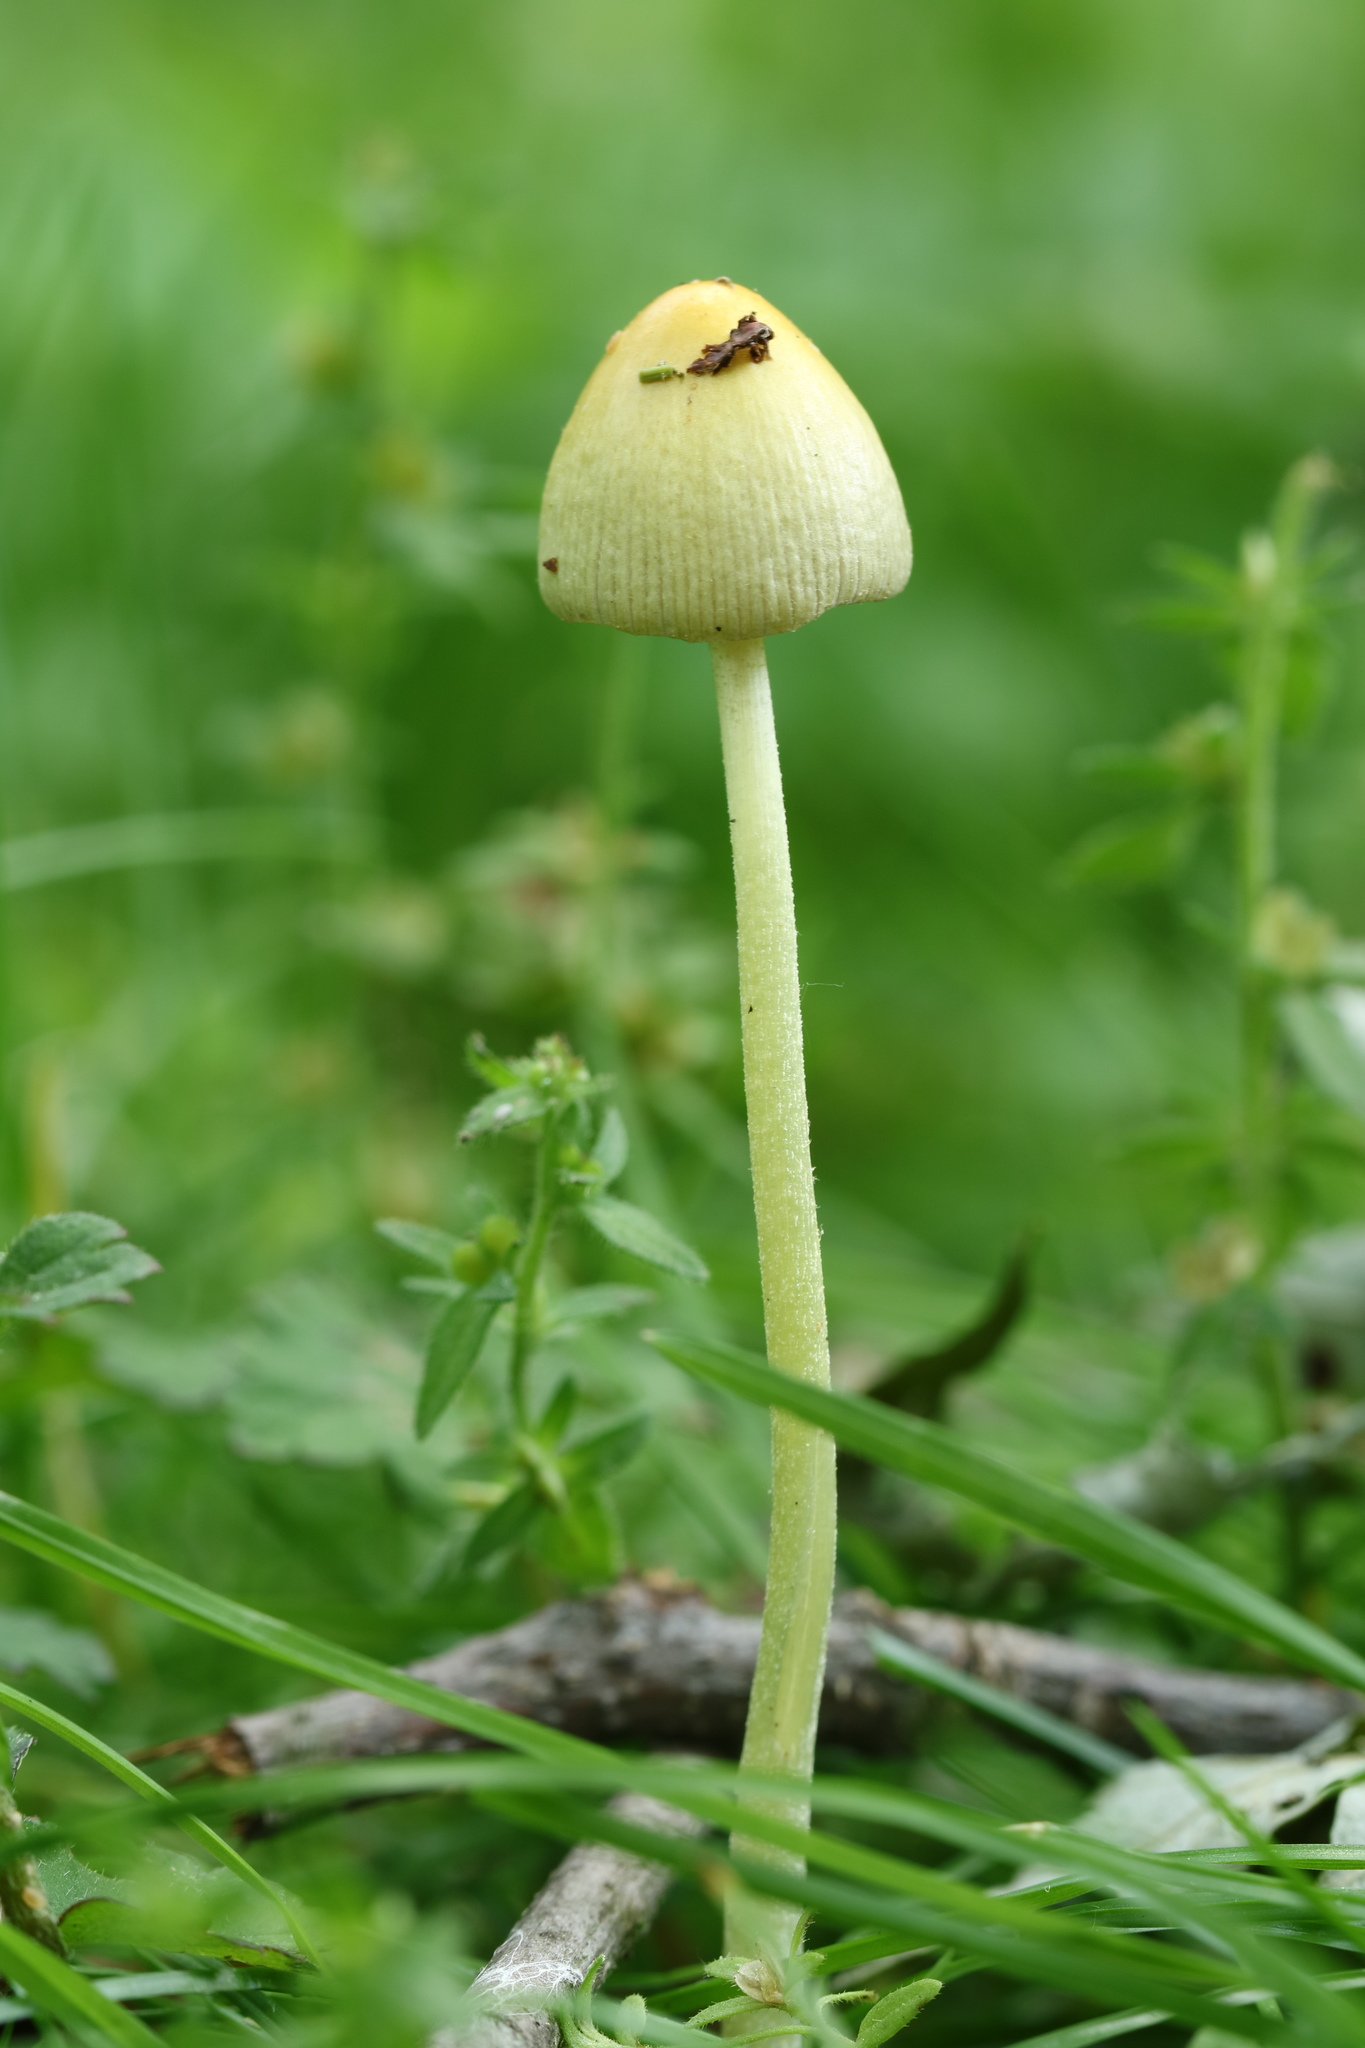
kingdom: Fungi
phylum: Basidiomycota
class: Agaricomycetes
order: Agaricales
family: Bolbitiaceae
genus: Bolbitius
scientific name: Bolbitius titubans
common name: Yellow fieldcap
